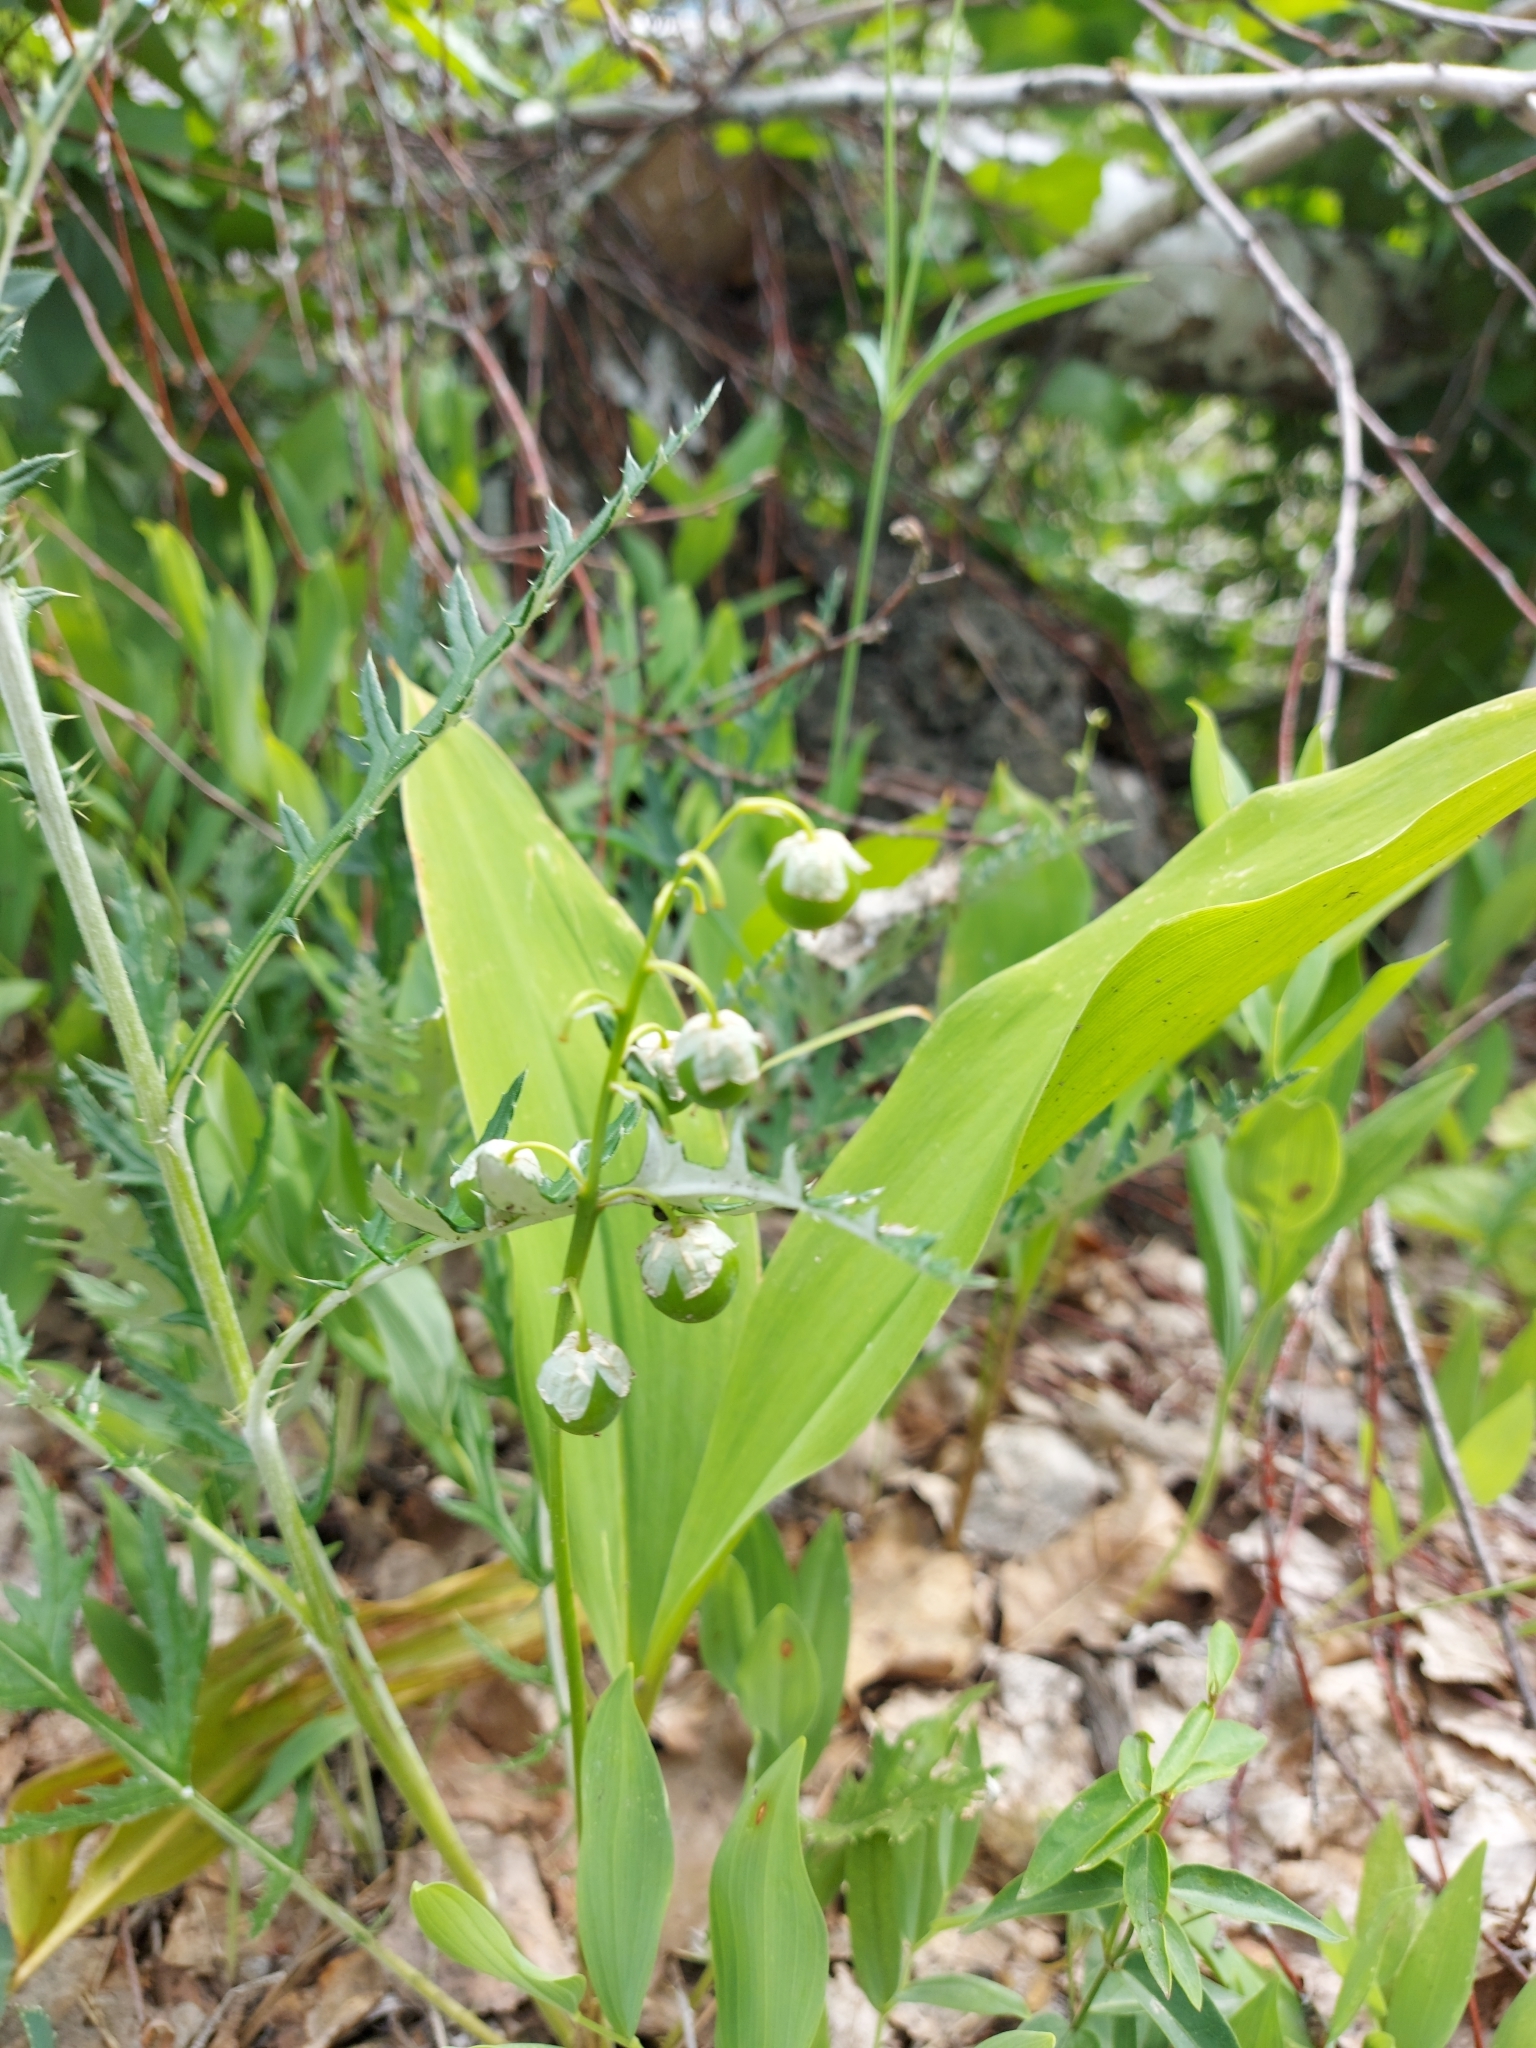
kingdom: Plantae
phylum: Tracheophyta
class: Liliopsida
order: Asparagales
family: Asparagaceae
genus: Convallaria
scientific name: Convallaria majalis
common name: Lily-of-the-valley
